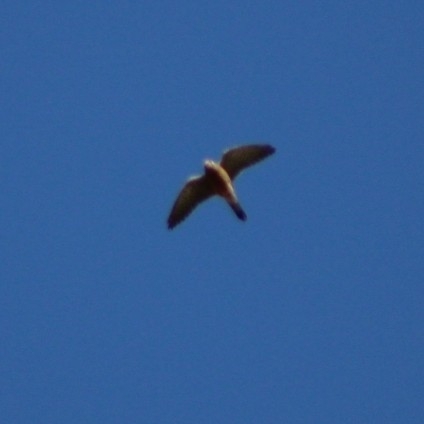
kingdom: Animalia
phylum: Chordata
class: Aves
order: Falconiformes
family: Falconidae
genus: Falco
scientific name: Falco tinnunculus
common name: Common kestrel
